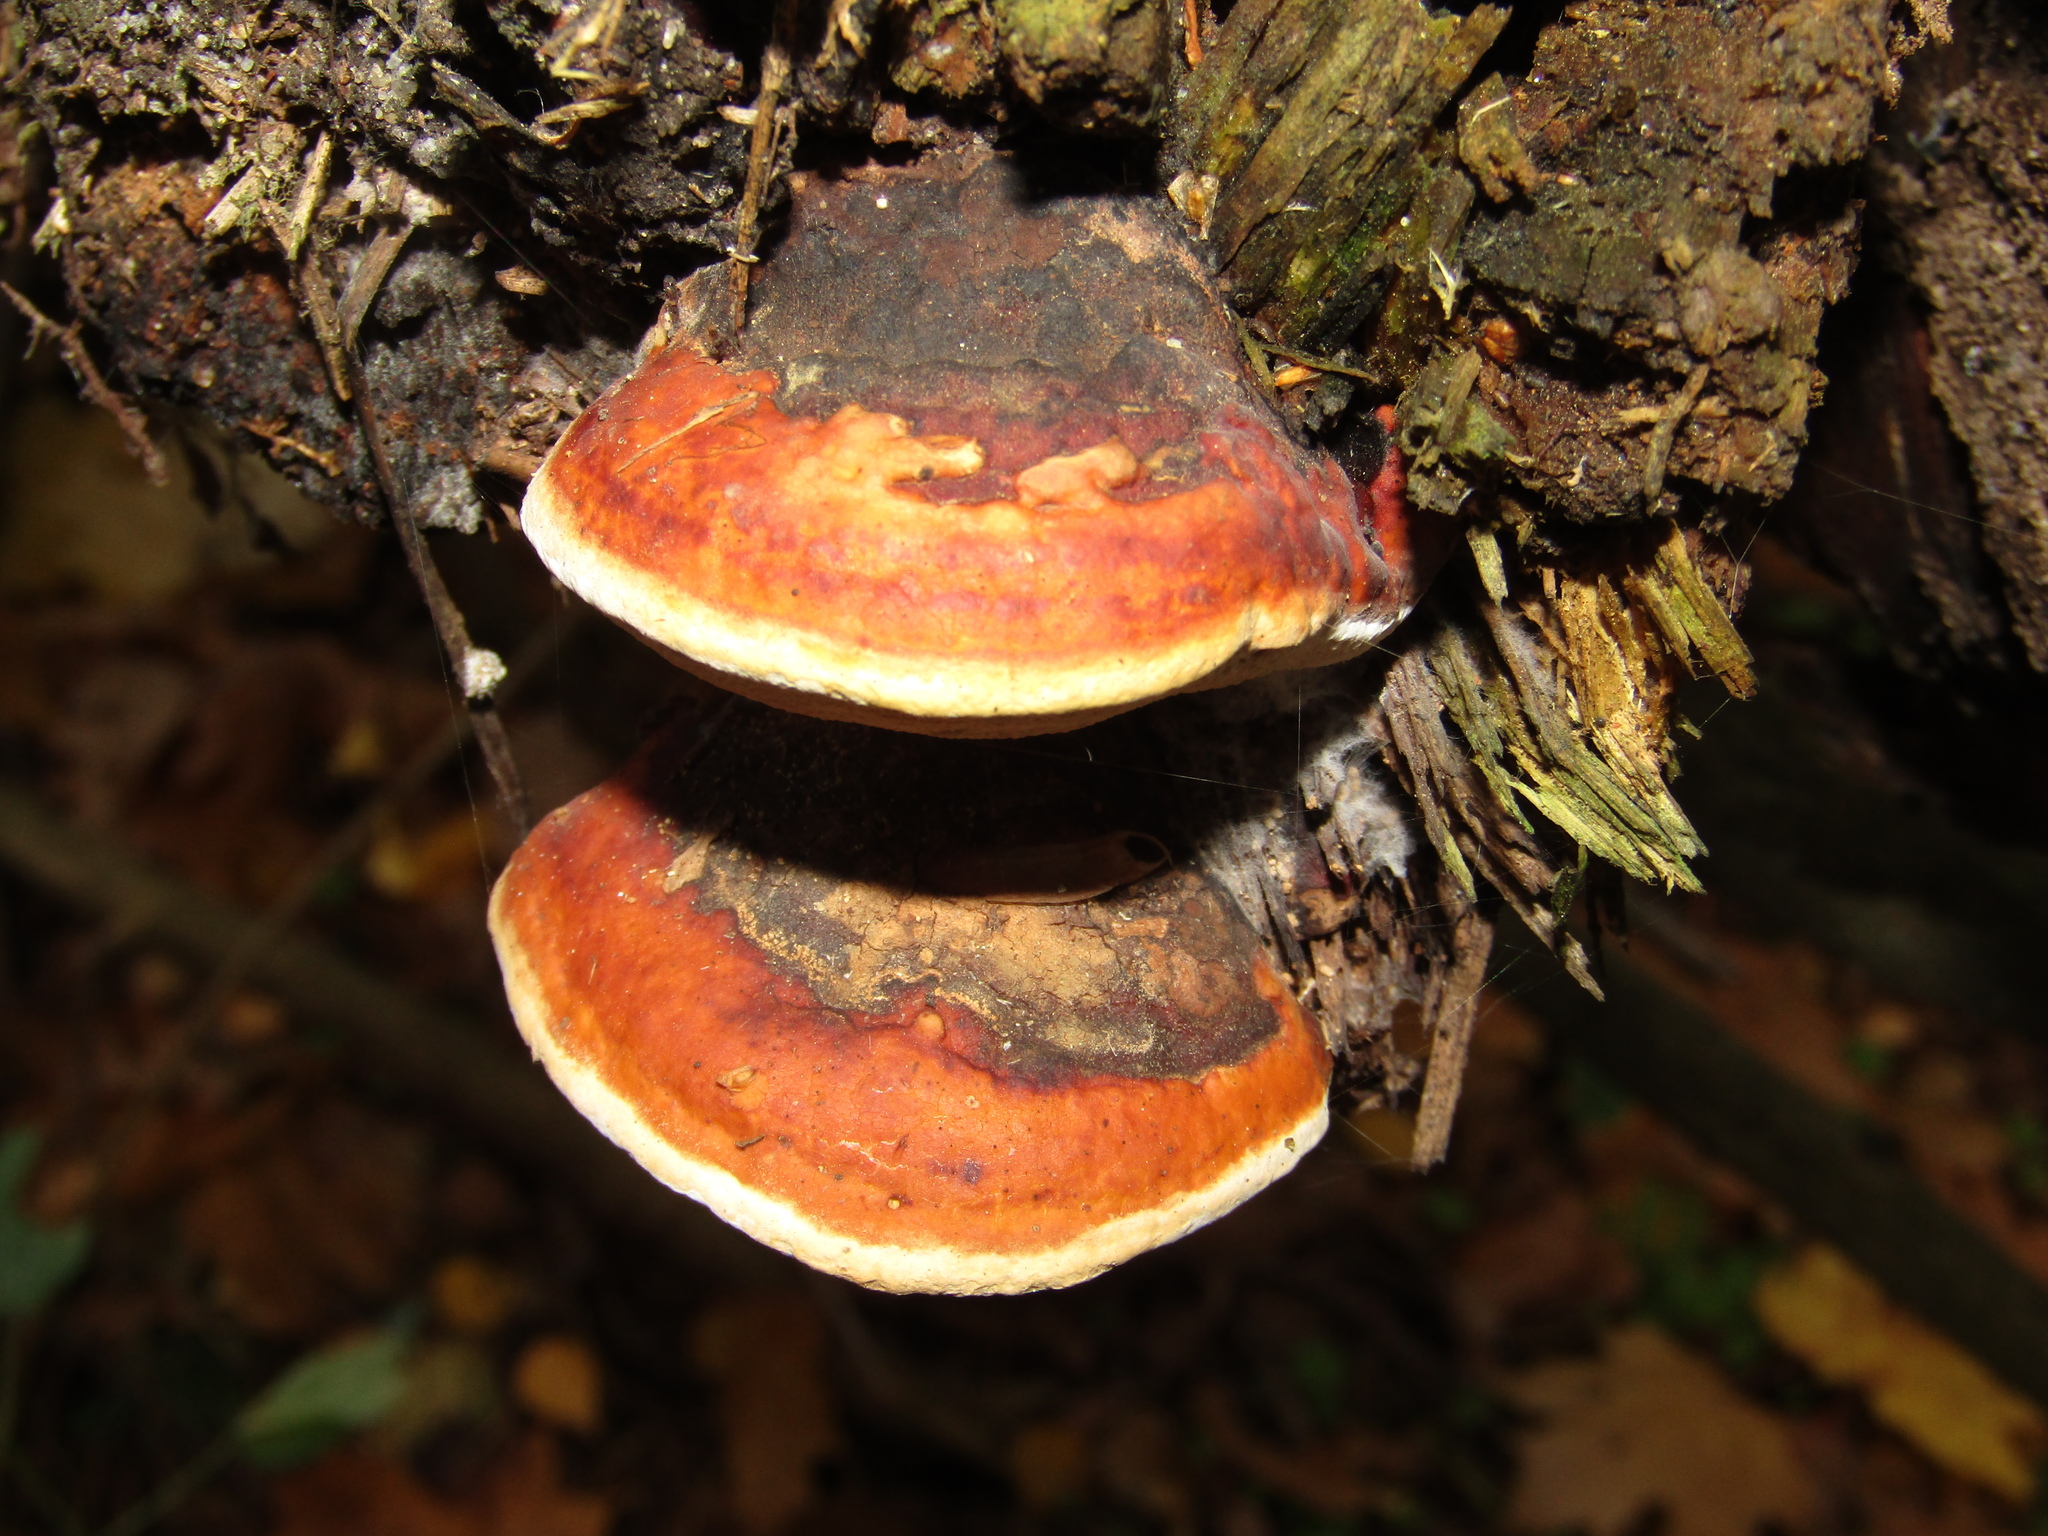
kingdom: Fungi
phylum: Basidiomycota
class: Agaricomycetes
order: Polyporales
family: Fomitopsidaceae
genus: Fomitopsis
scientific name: Fomitopsis pinicola
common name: Red-belted bracket
